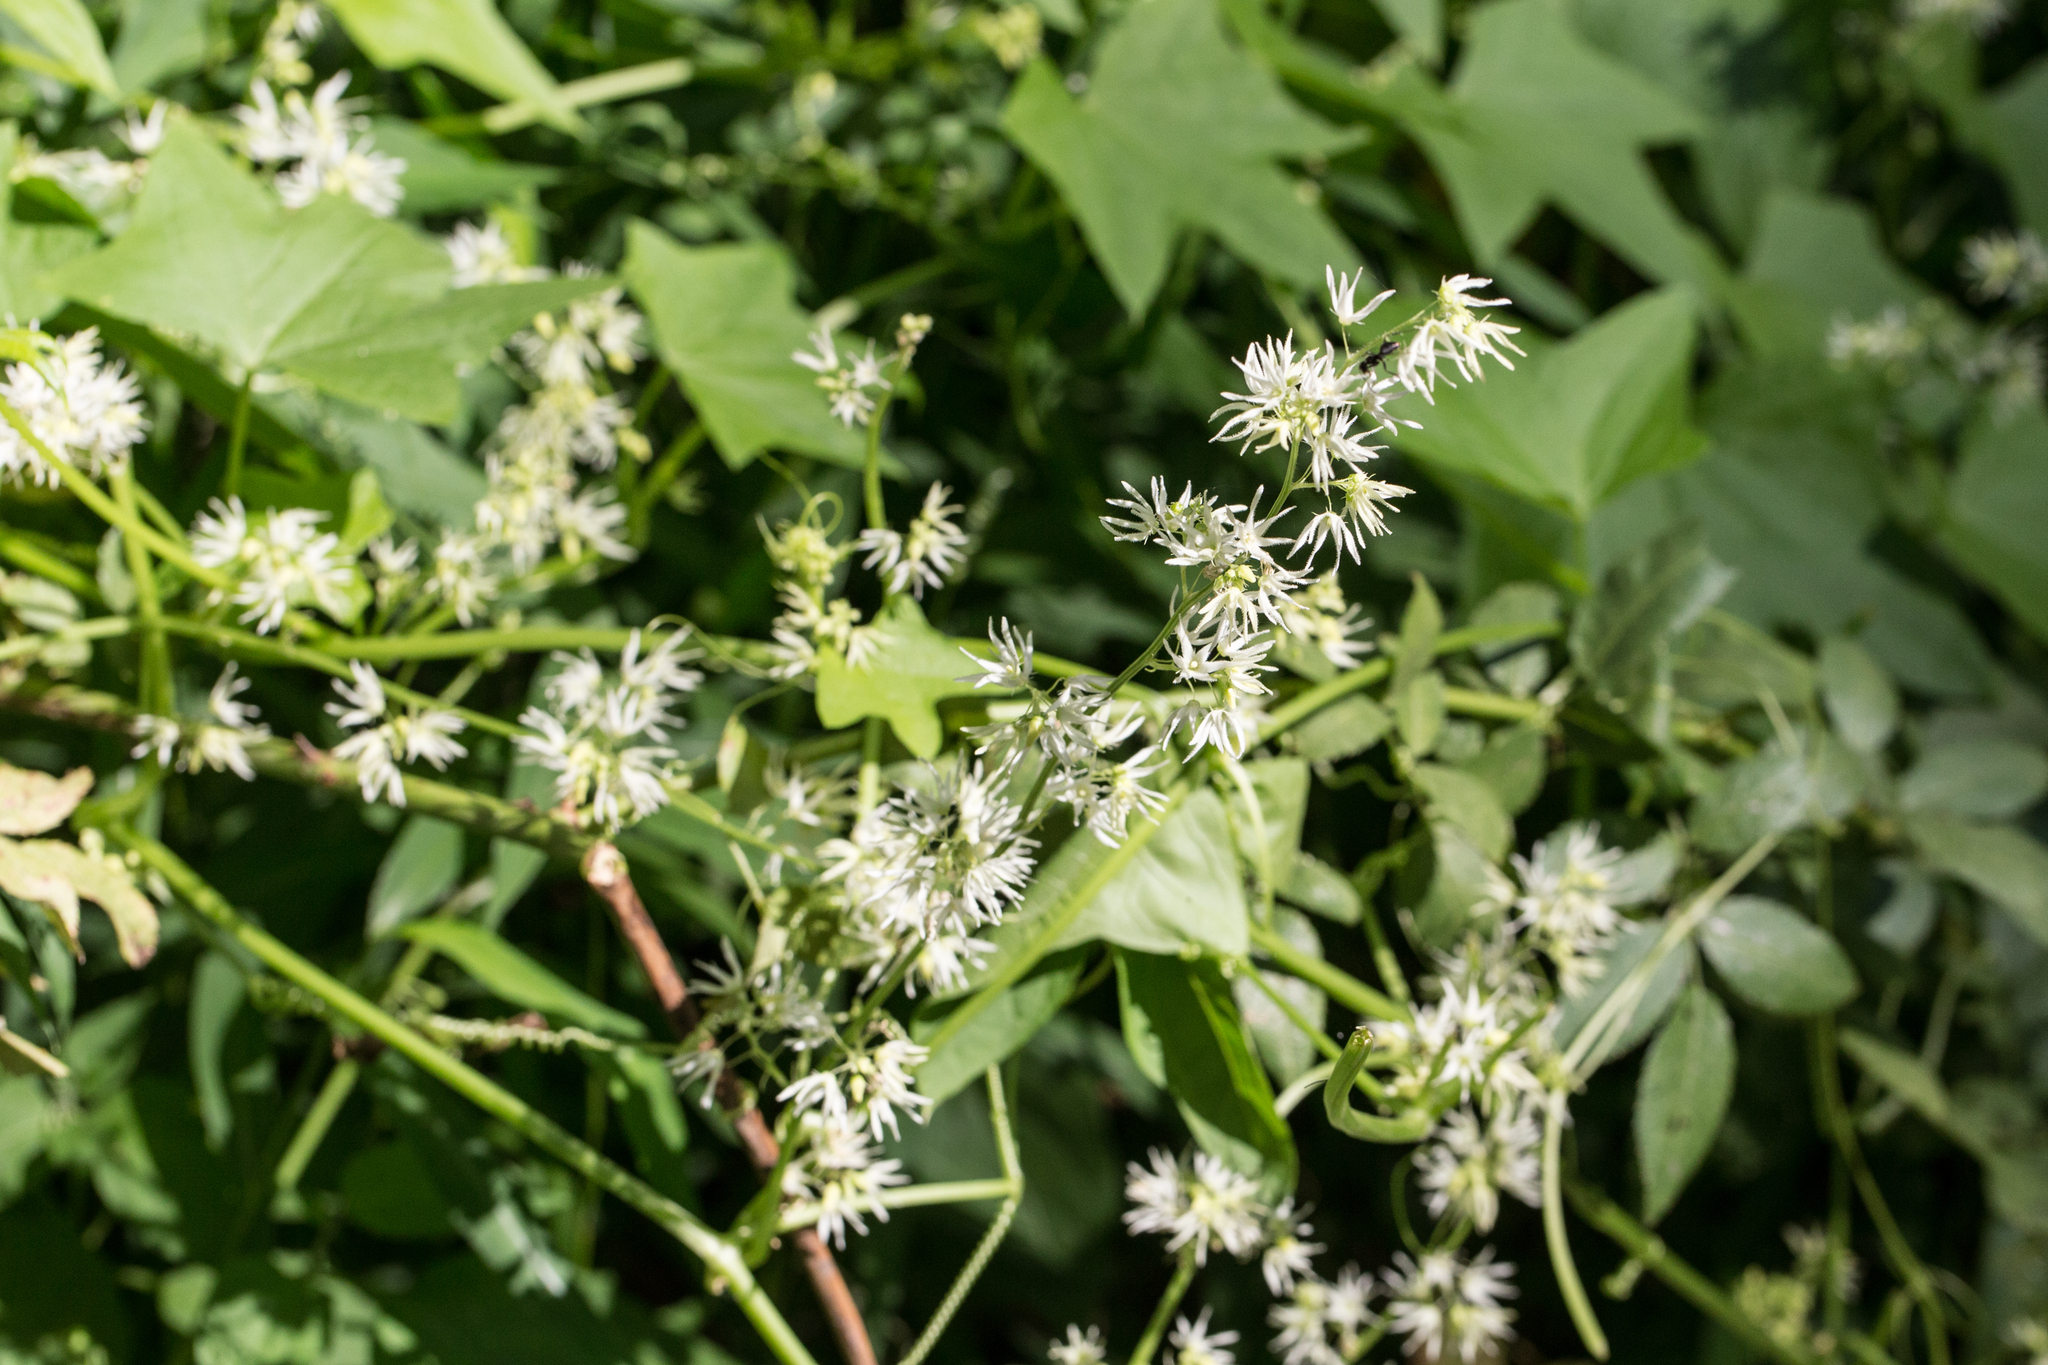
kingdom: Plantae
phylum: Tracheophyta
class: Magnoliopsida
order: Cucurbitales
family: Cucurbitaceae
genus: Echinocystis
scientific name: Echinocystis lobata
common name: Wild cucumber
